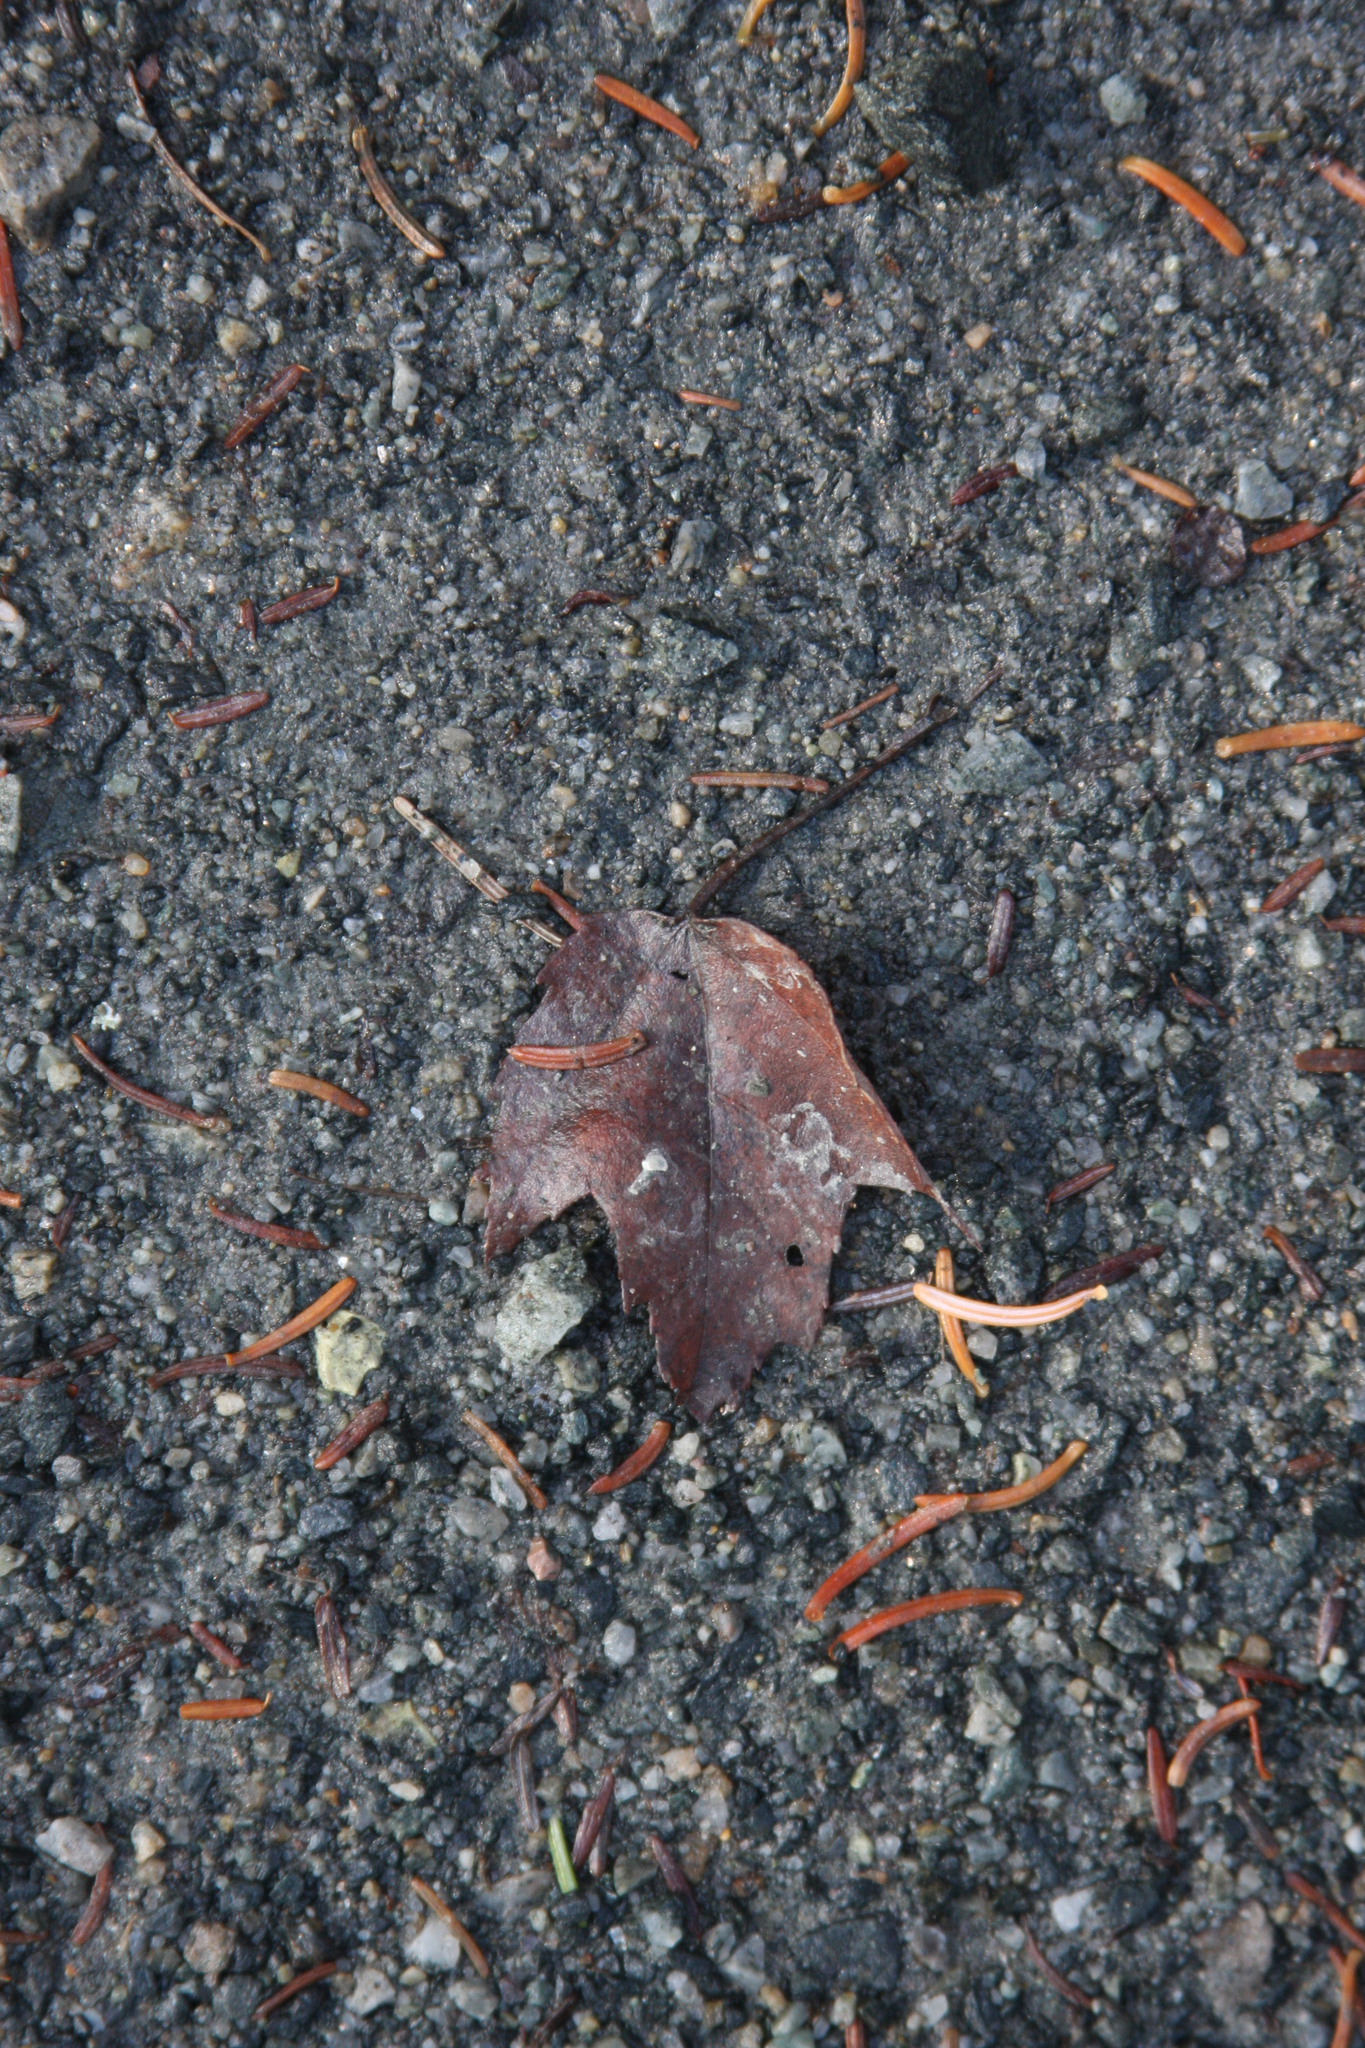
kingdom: Plantae
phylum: Tracheophyta
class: Magnoliopsida
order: Sapindales
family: Sapindaceae
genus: Acer
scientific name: Acer rubrum
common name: Red maple
